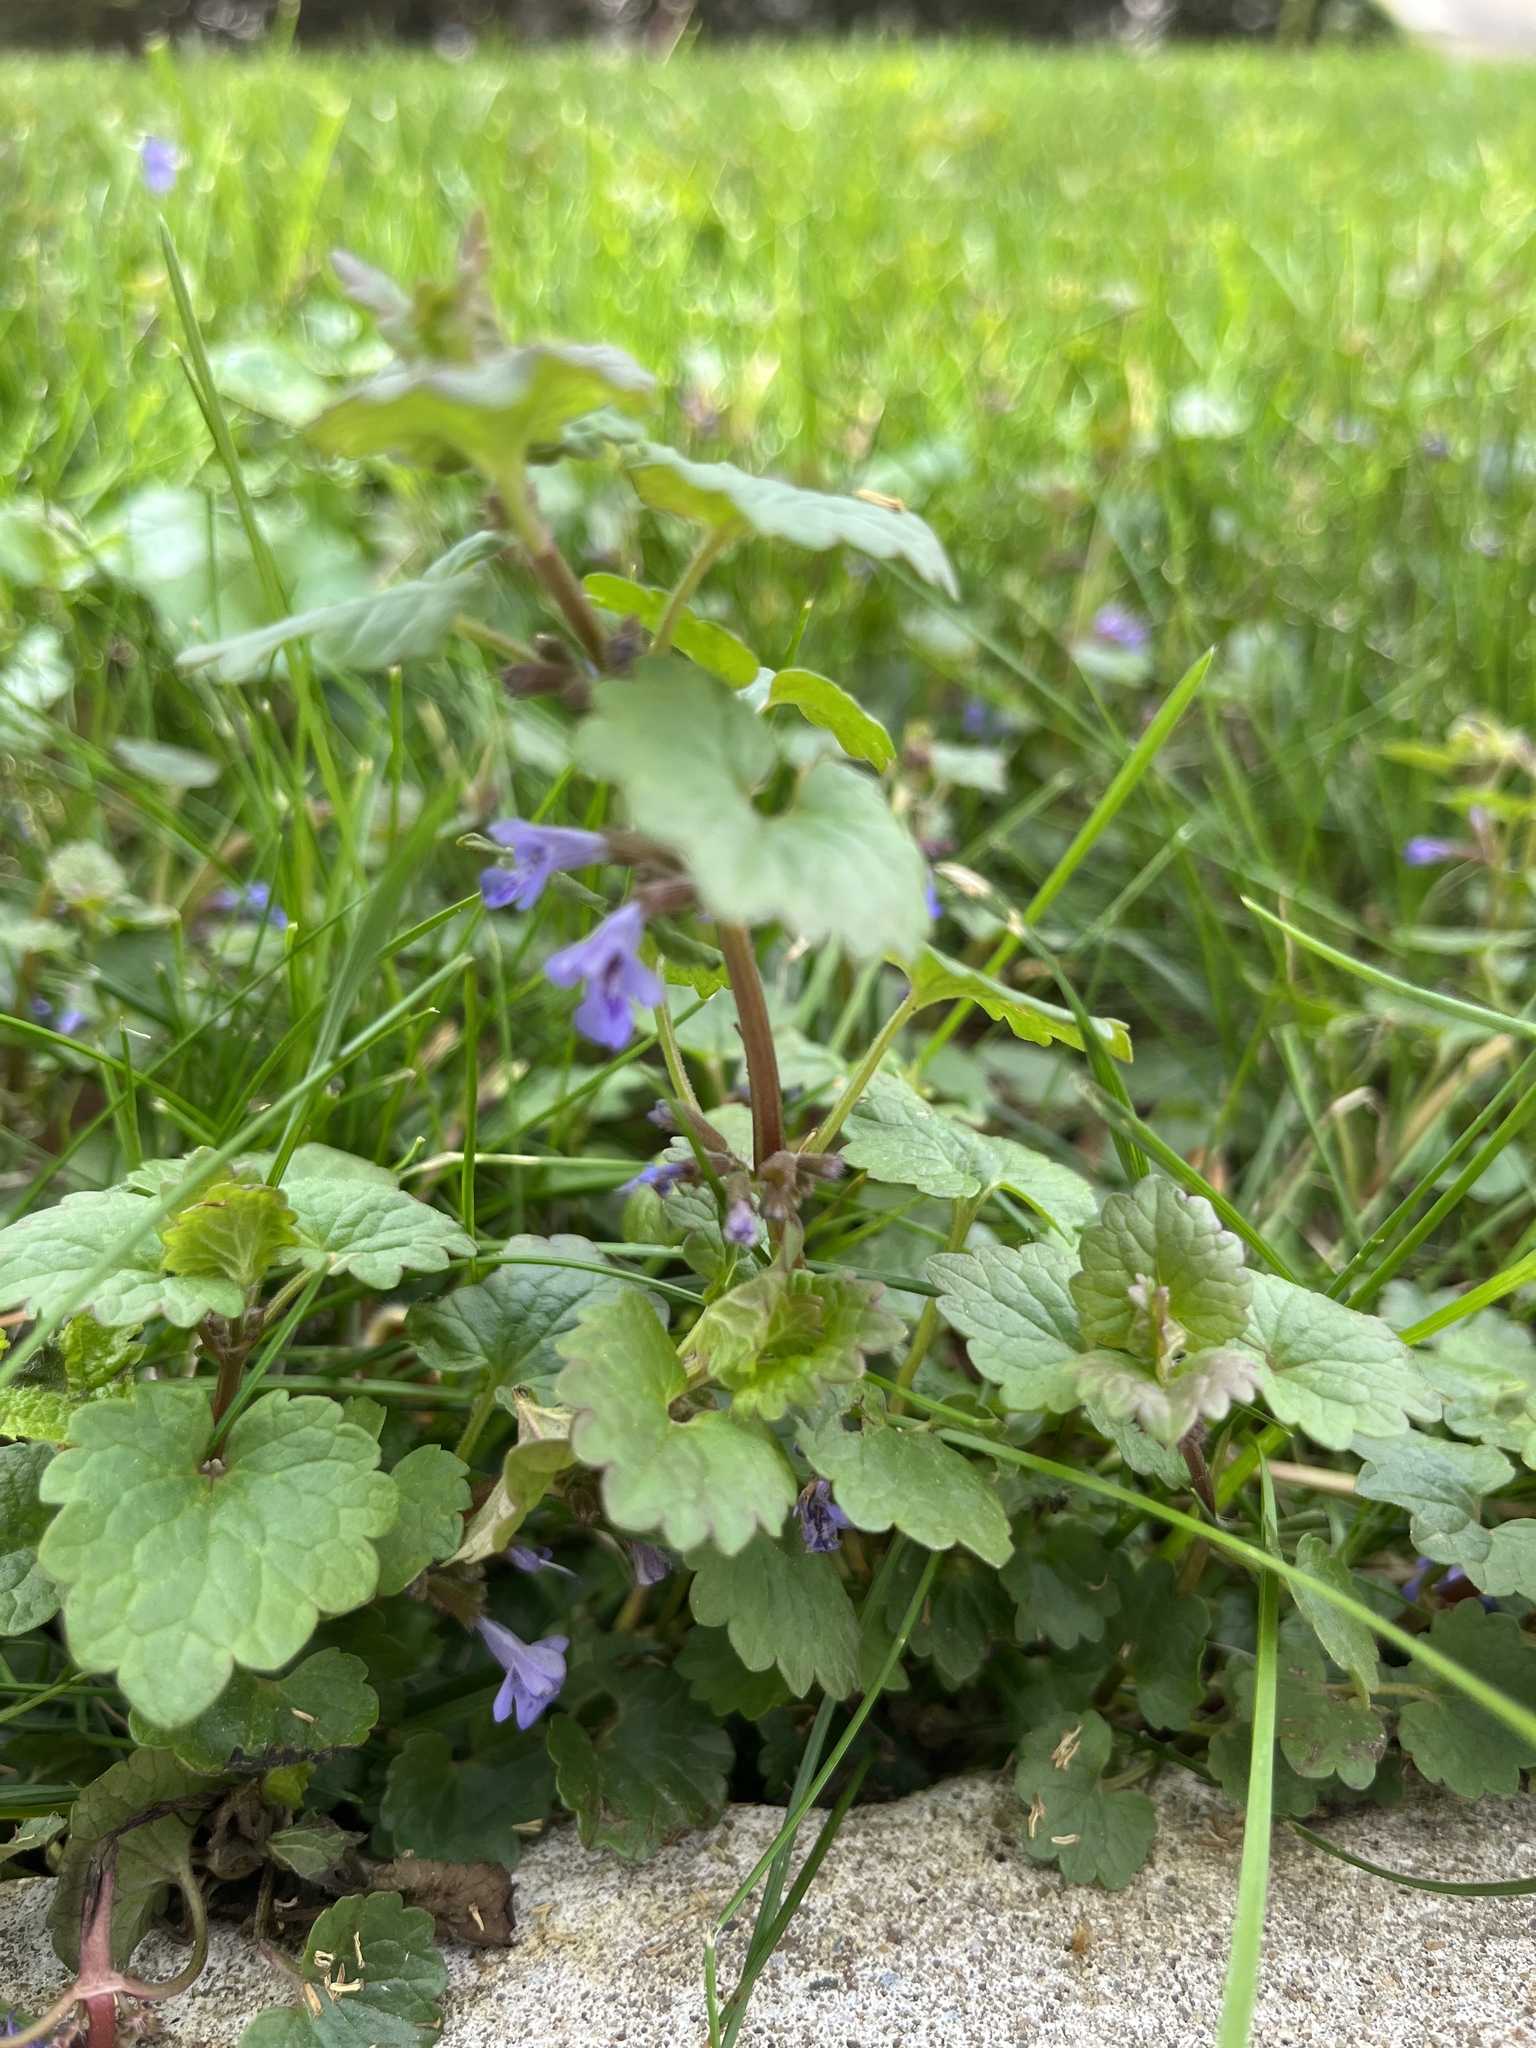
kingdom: Plantae
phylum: Tracheophyta
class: Magnoliopsida
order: Lamiales
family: Lamiaceae
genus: Glechoma
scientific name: Glechoma hederacea
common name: Ground ivy
